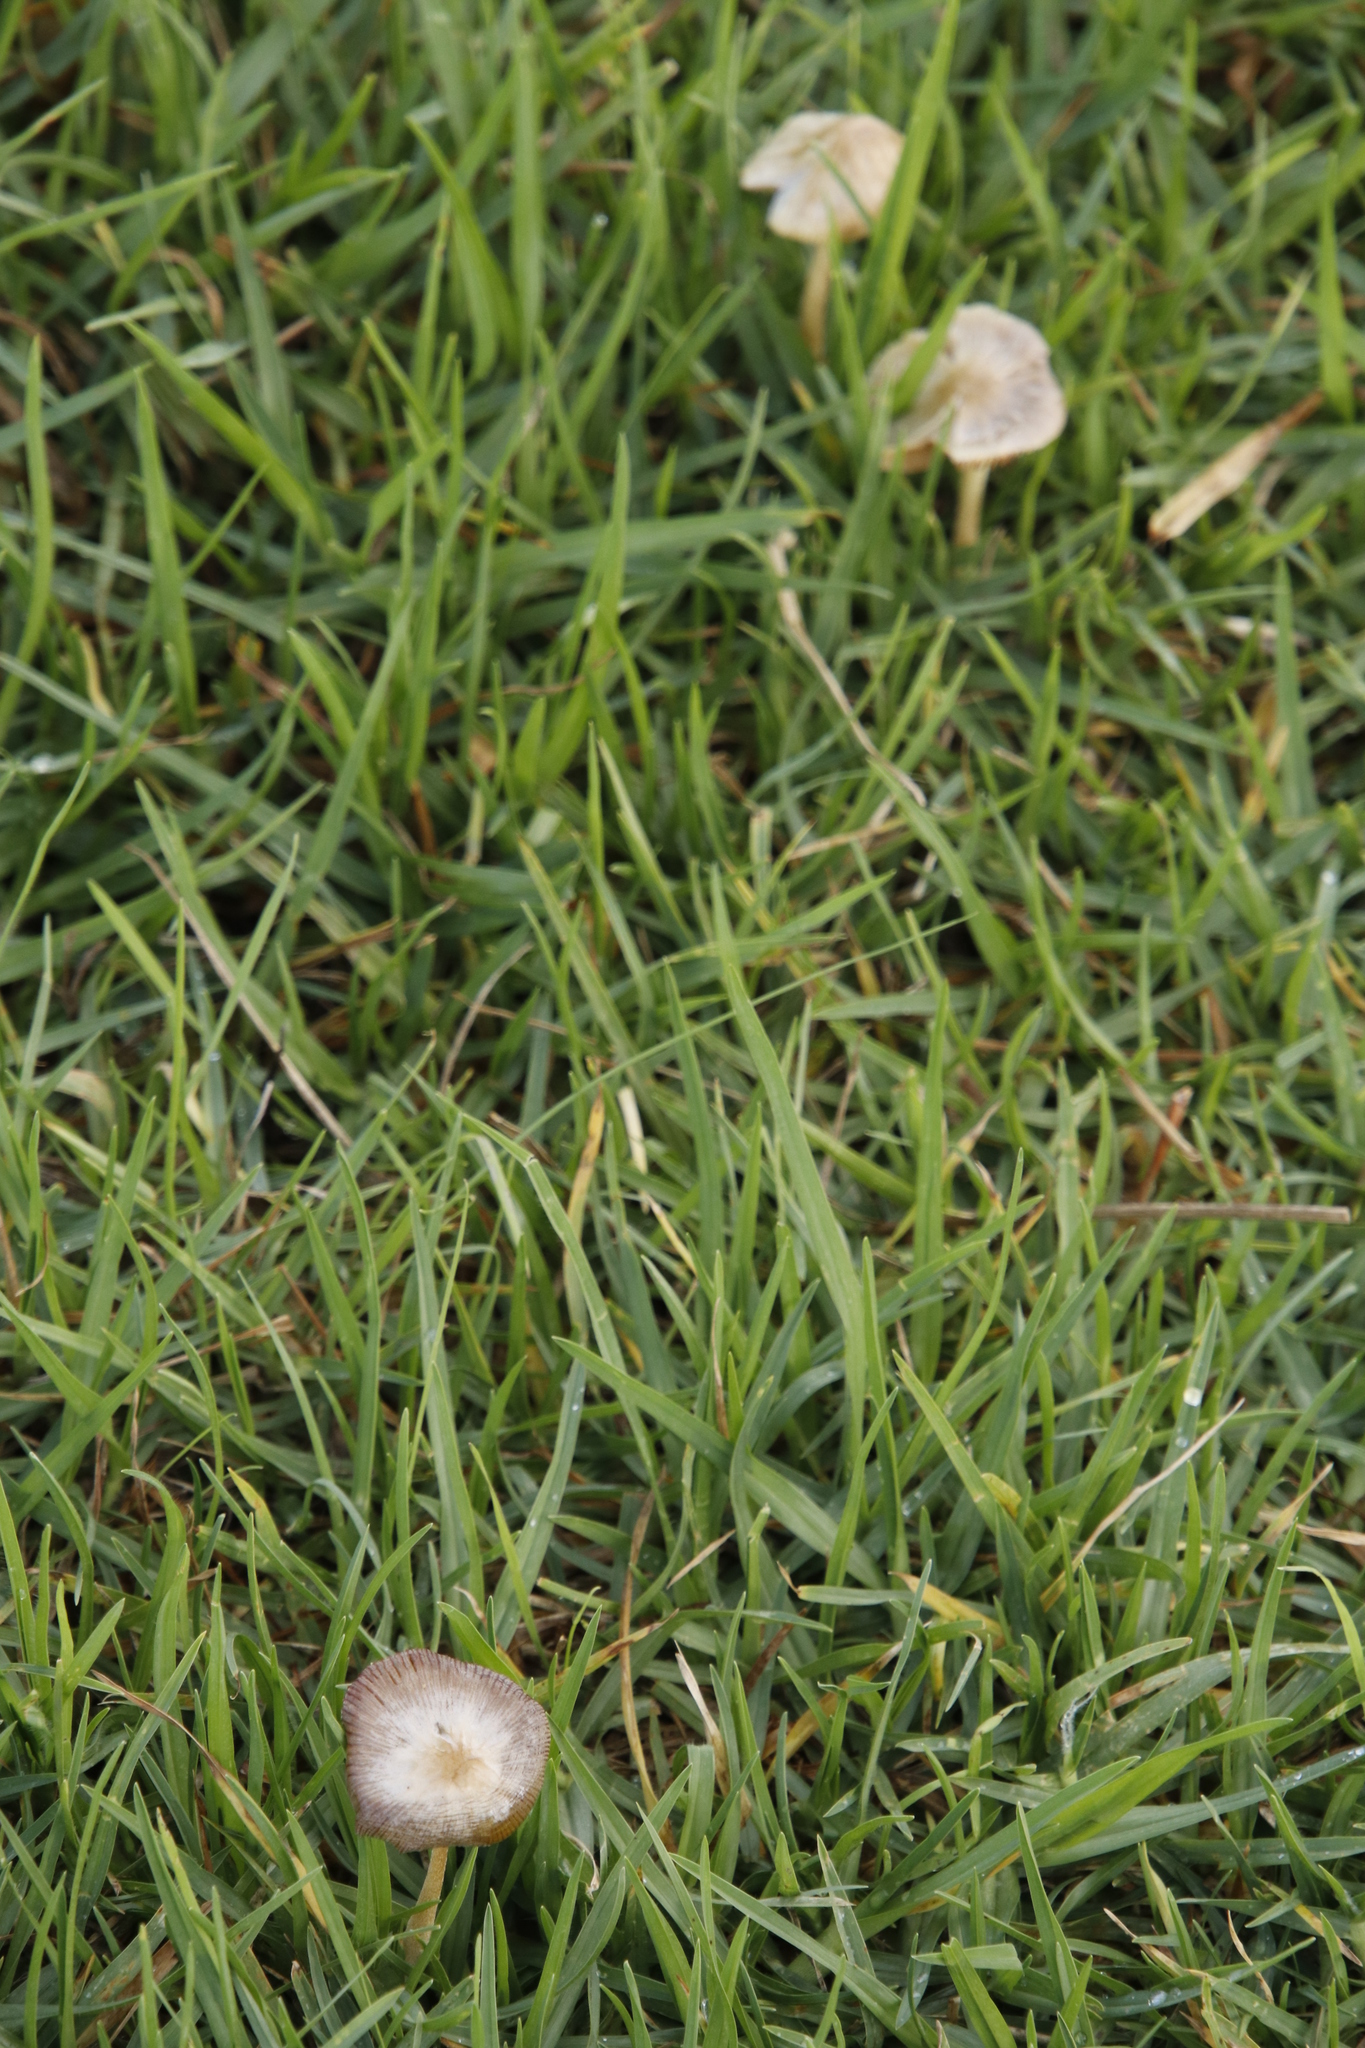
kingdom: Fungi
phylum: Basidiomycota
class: Agaricomycetes
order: Agaricales
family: Bolbitiaceae
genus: Bolbitius
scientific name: Bolbitius titubans
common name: Yellow fieldcap
